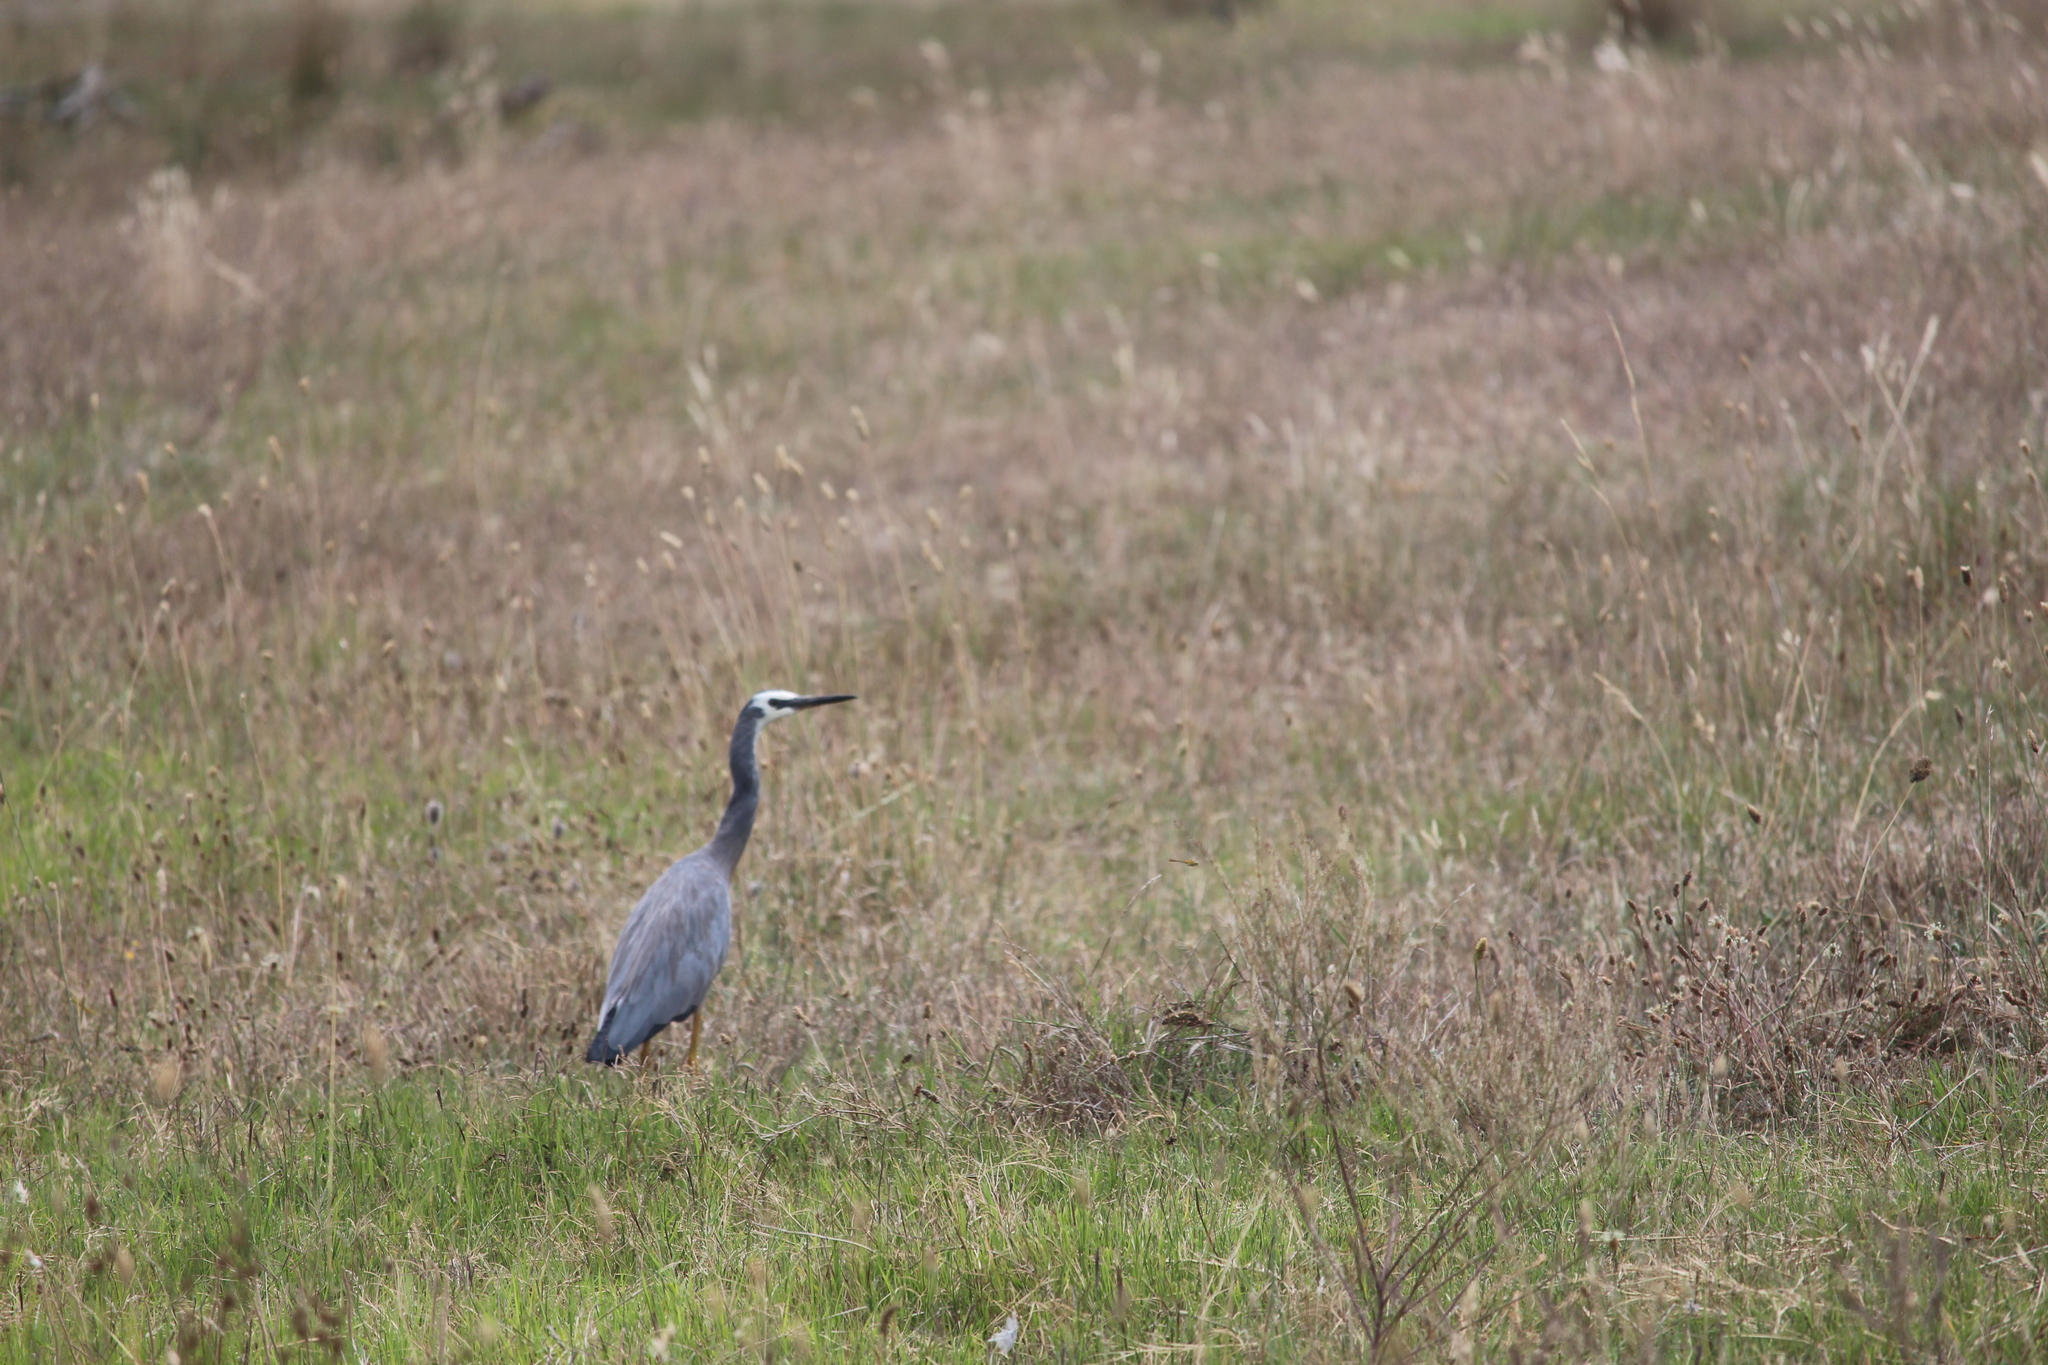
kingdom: Animalia
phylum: Chordata
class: Aves
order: Pelecaniformes
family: Ardeidae
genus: Egretta
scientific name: Egretta novaehollandiae
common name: White-faced heron
